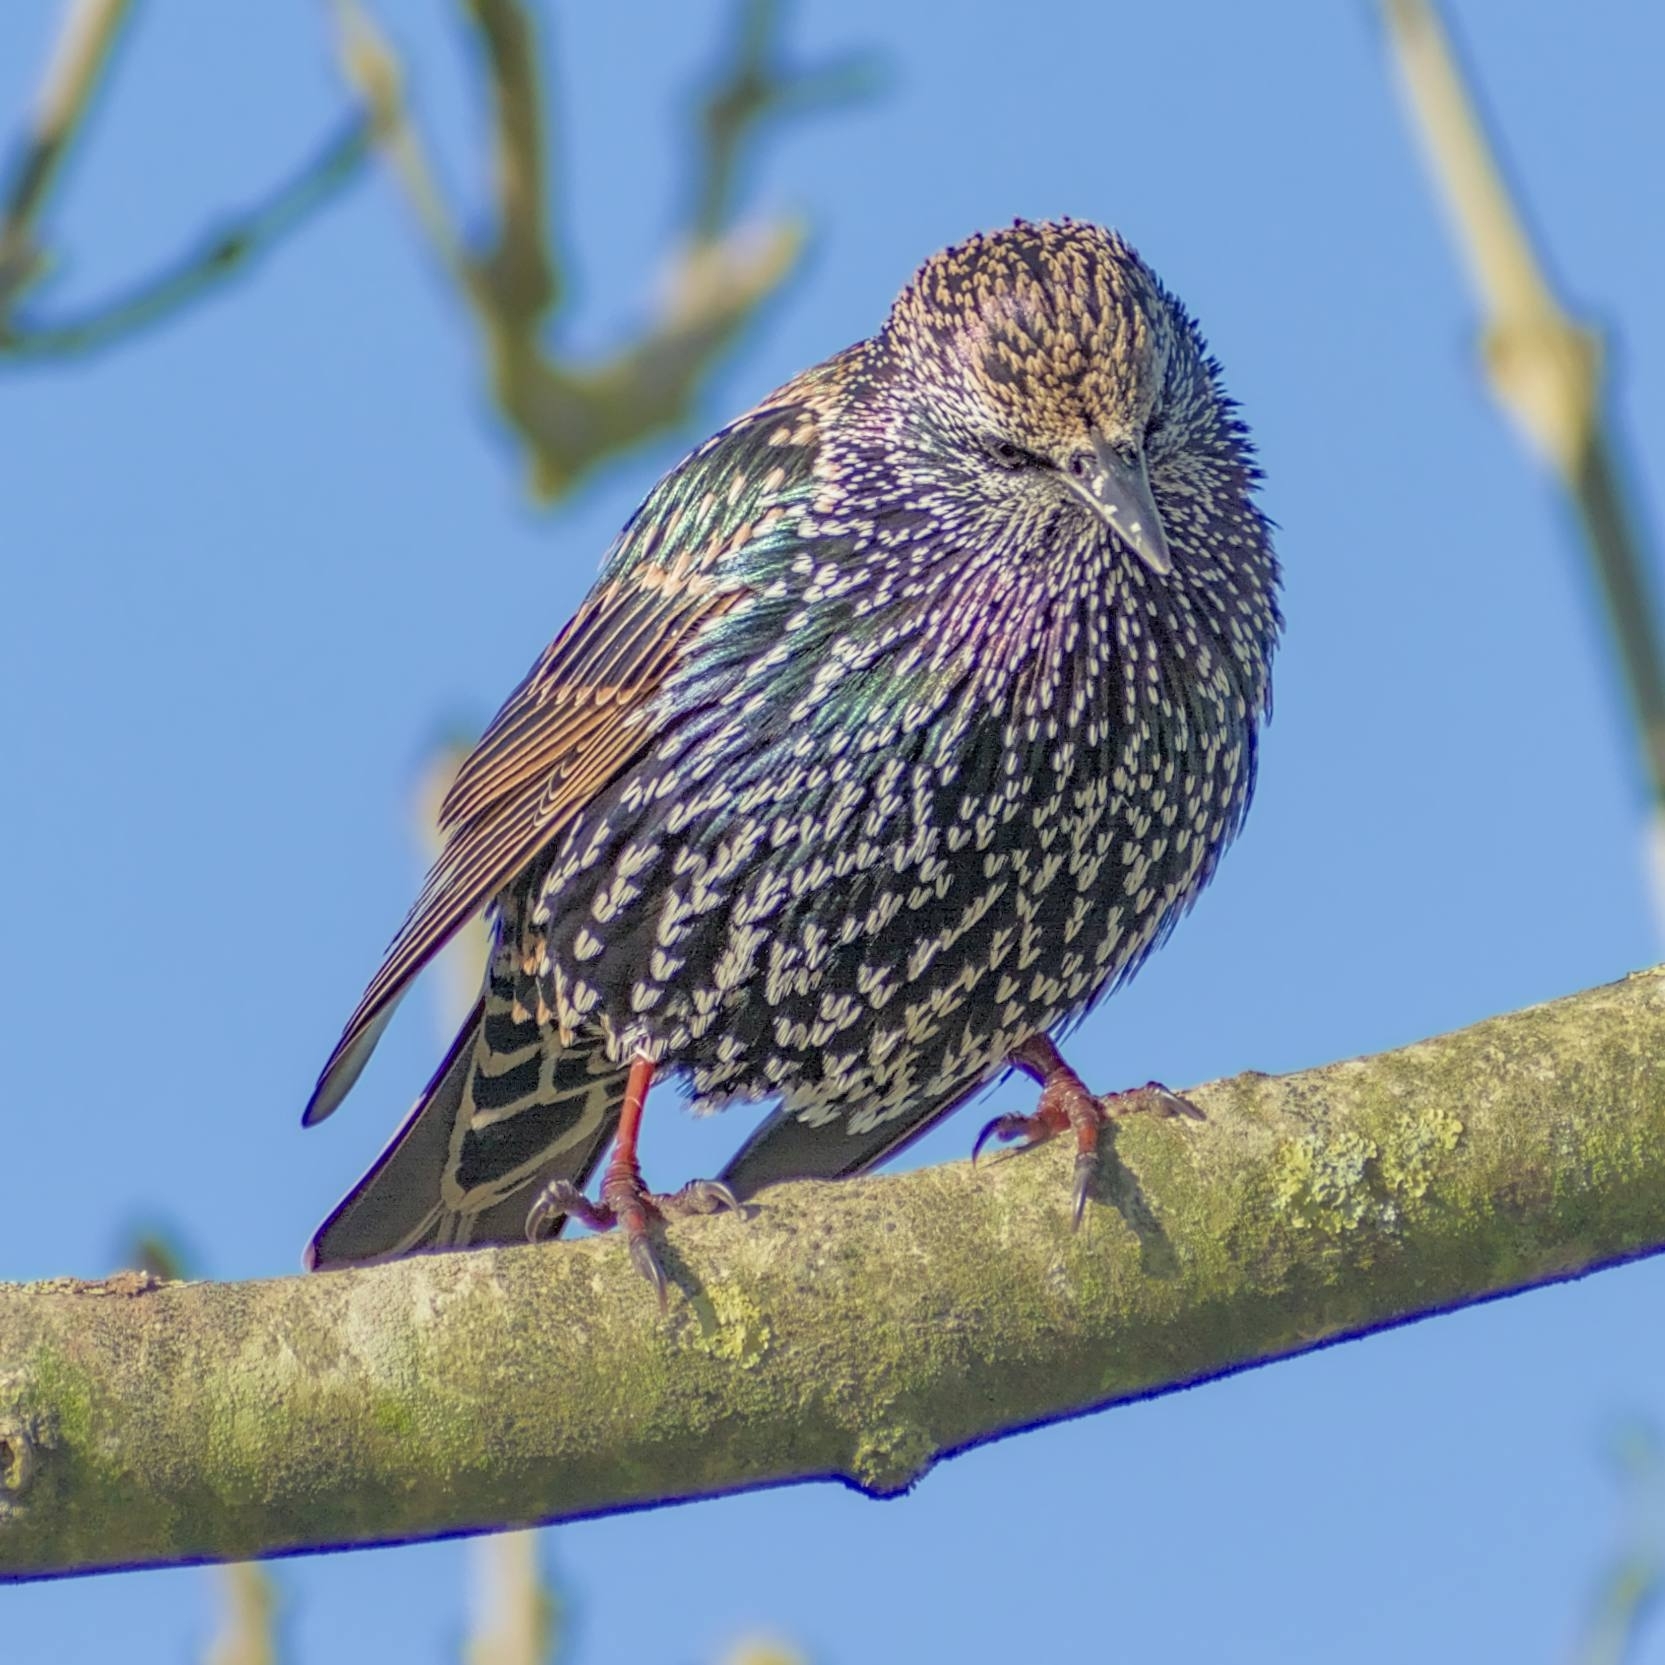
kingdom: Animalia
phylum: Chordata
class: Aves
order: Passeriformes
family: Sturnidae
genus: Sturnus
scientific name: Sturnus vulgaris
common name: Common starling
